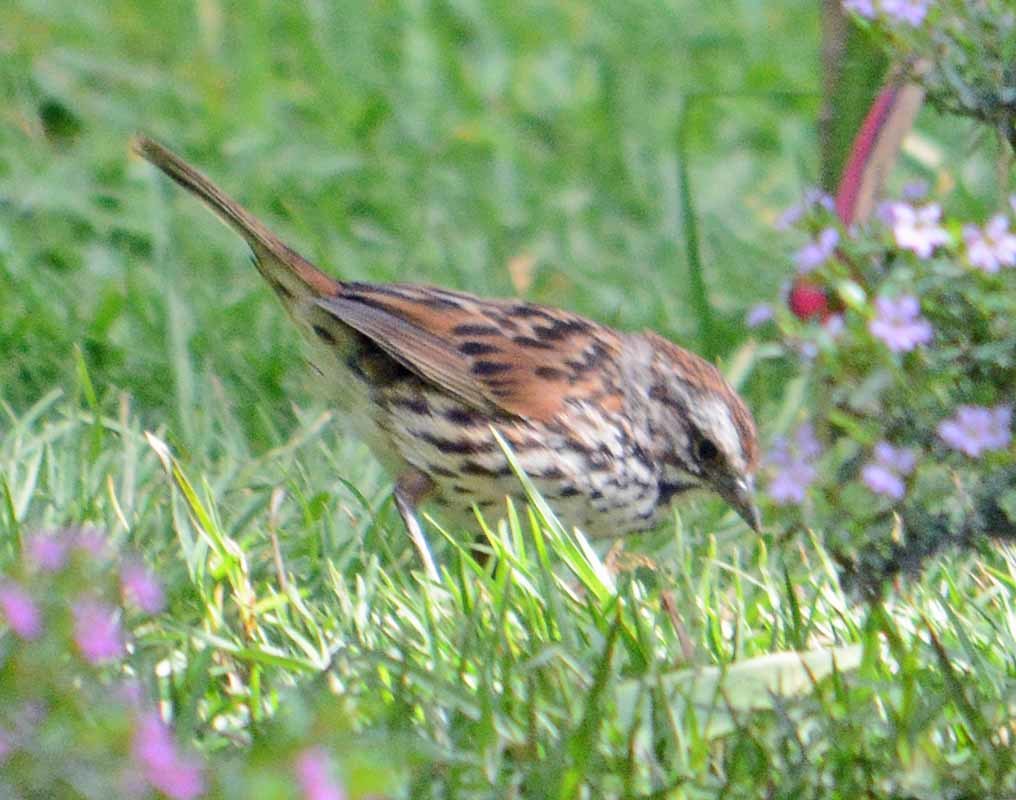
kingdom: Animalia
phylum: Chordata
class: Aves
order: Passeriformes
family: Passerellidae
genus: Melospiza
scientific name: Melospiza melodia
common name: Song sparrow
